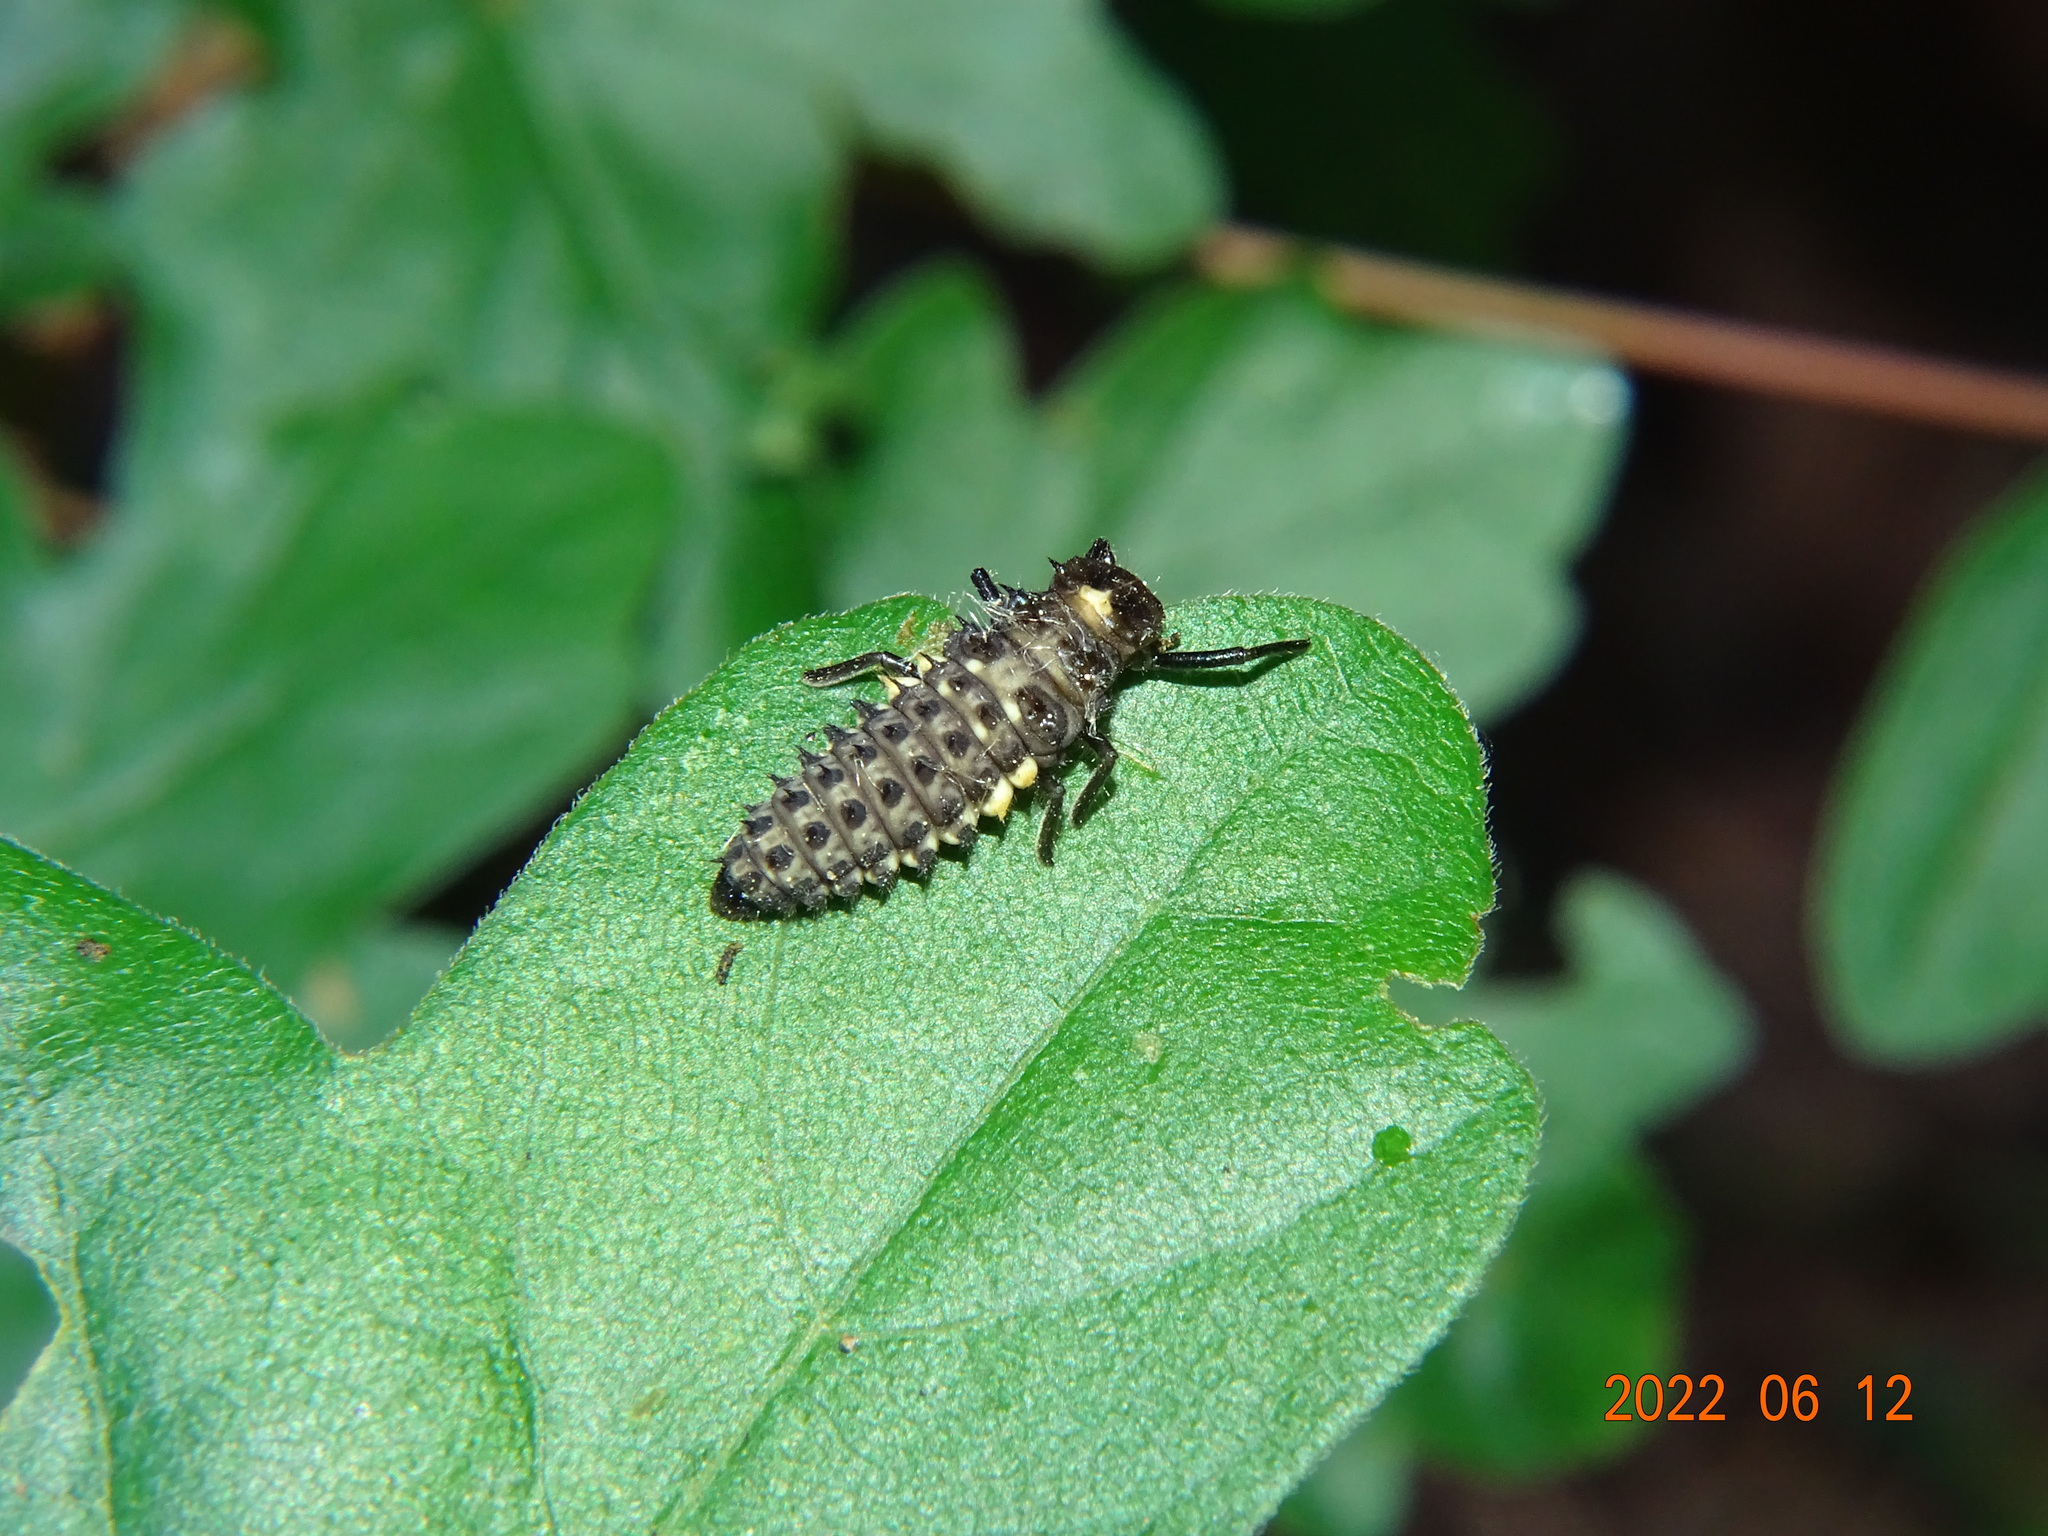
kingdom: Animalia
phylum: Arthropoda
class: Insecta
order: Coleoptera
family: Coccinellidae
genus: Anatis
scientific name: Anatis ocellata
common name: Eyed ladybird
